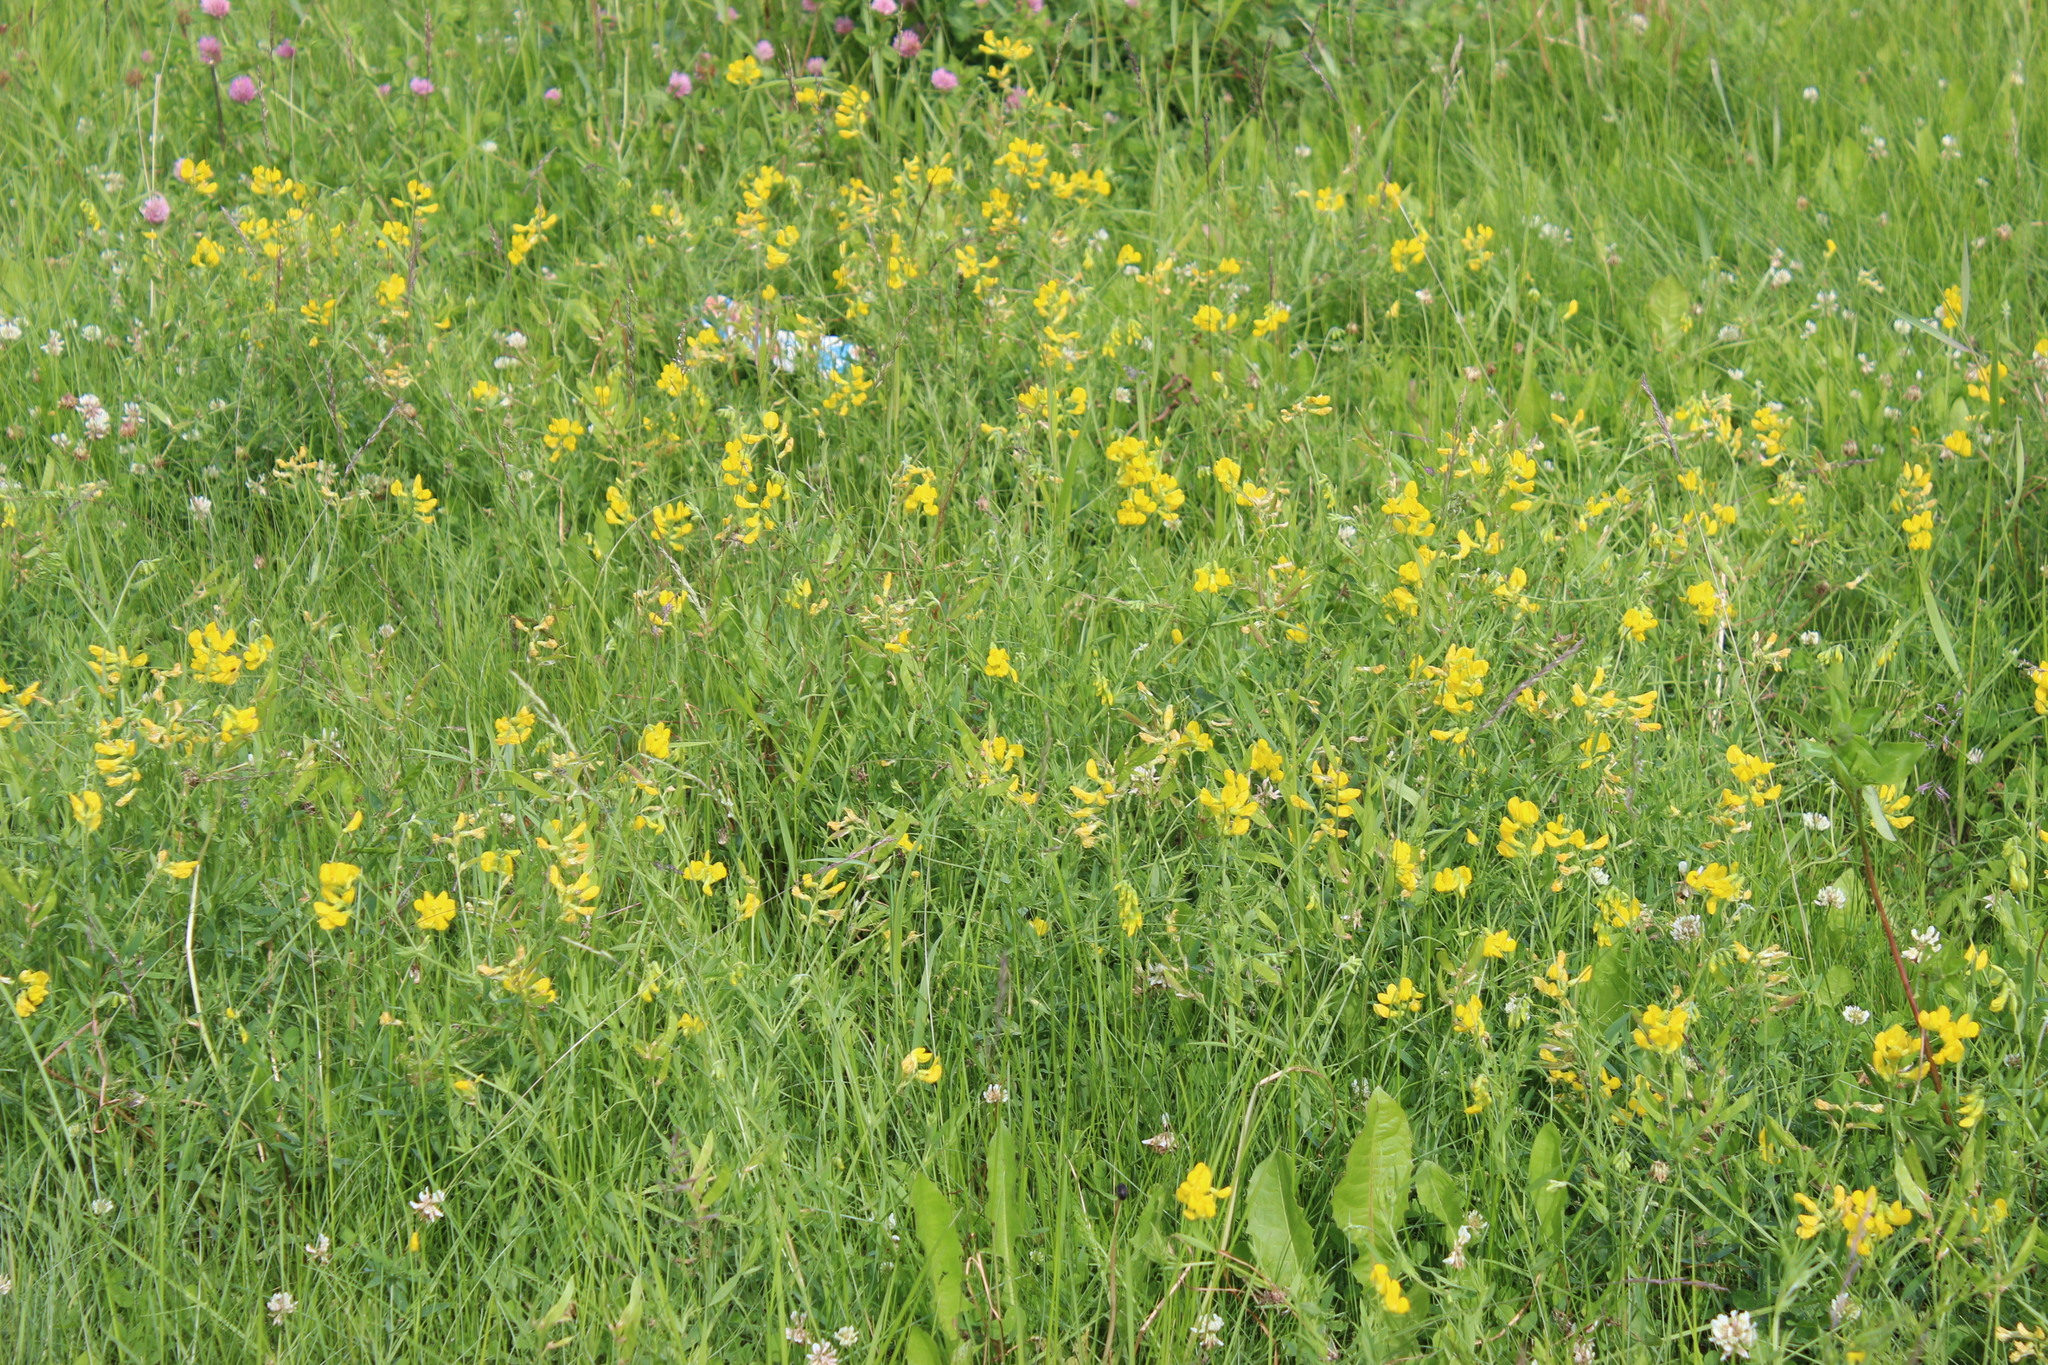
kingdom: Plantae
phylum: Tracheophyta
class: Magnoliopsida
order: Fabales
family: Fabaceae
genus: Lathyrus
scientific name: Lathyrus pratensis
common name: Meadow vetchling
